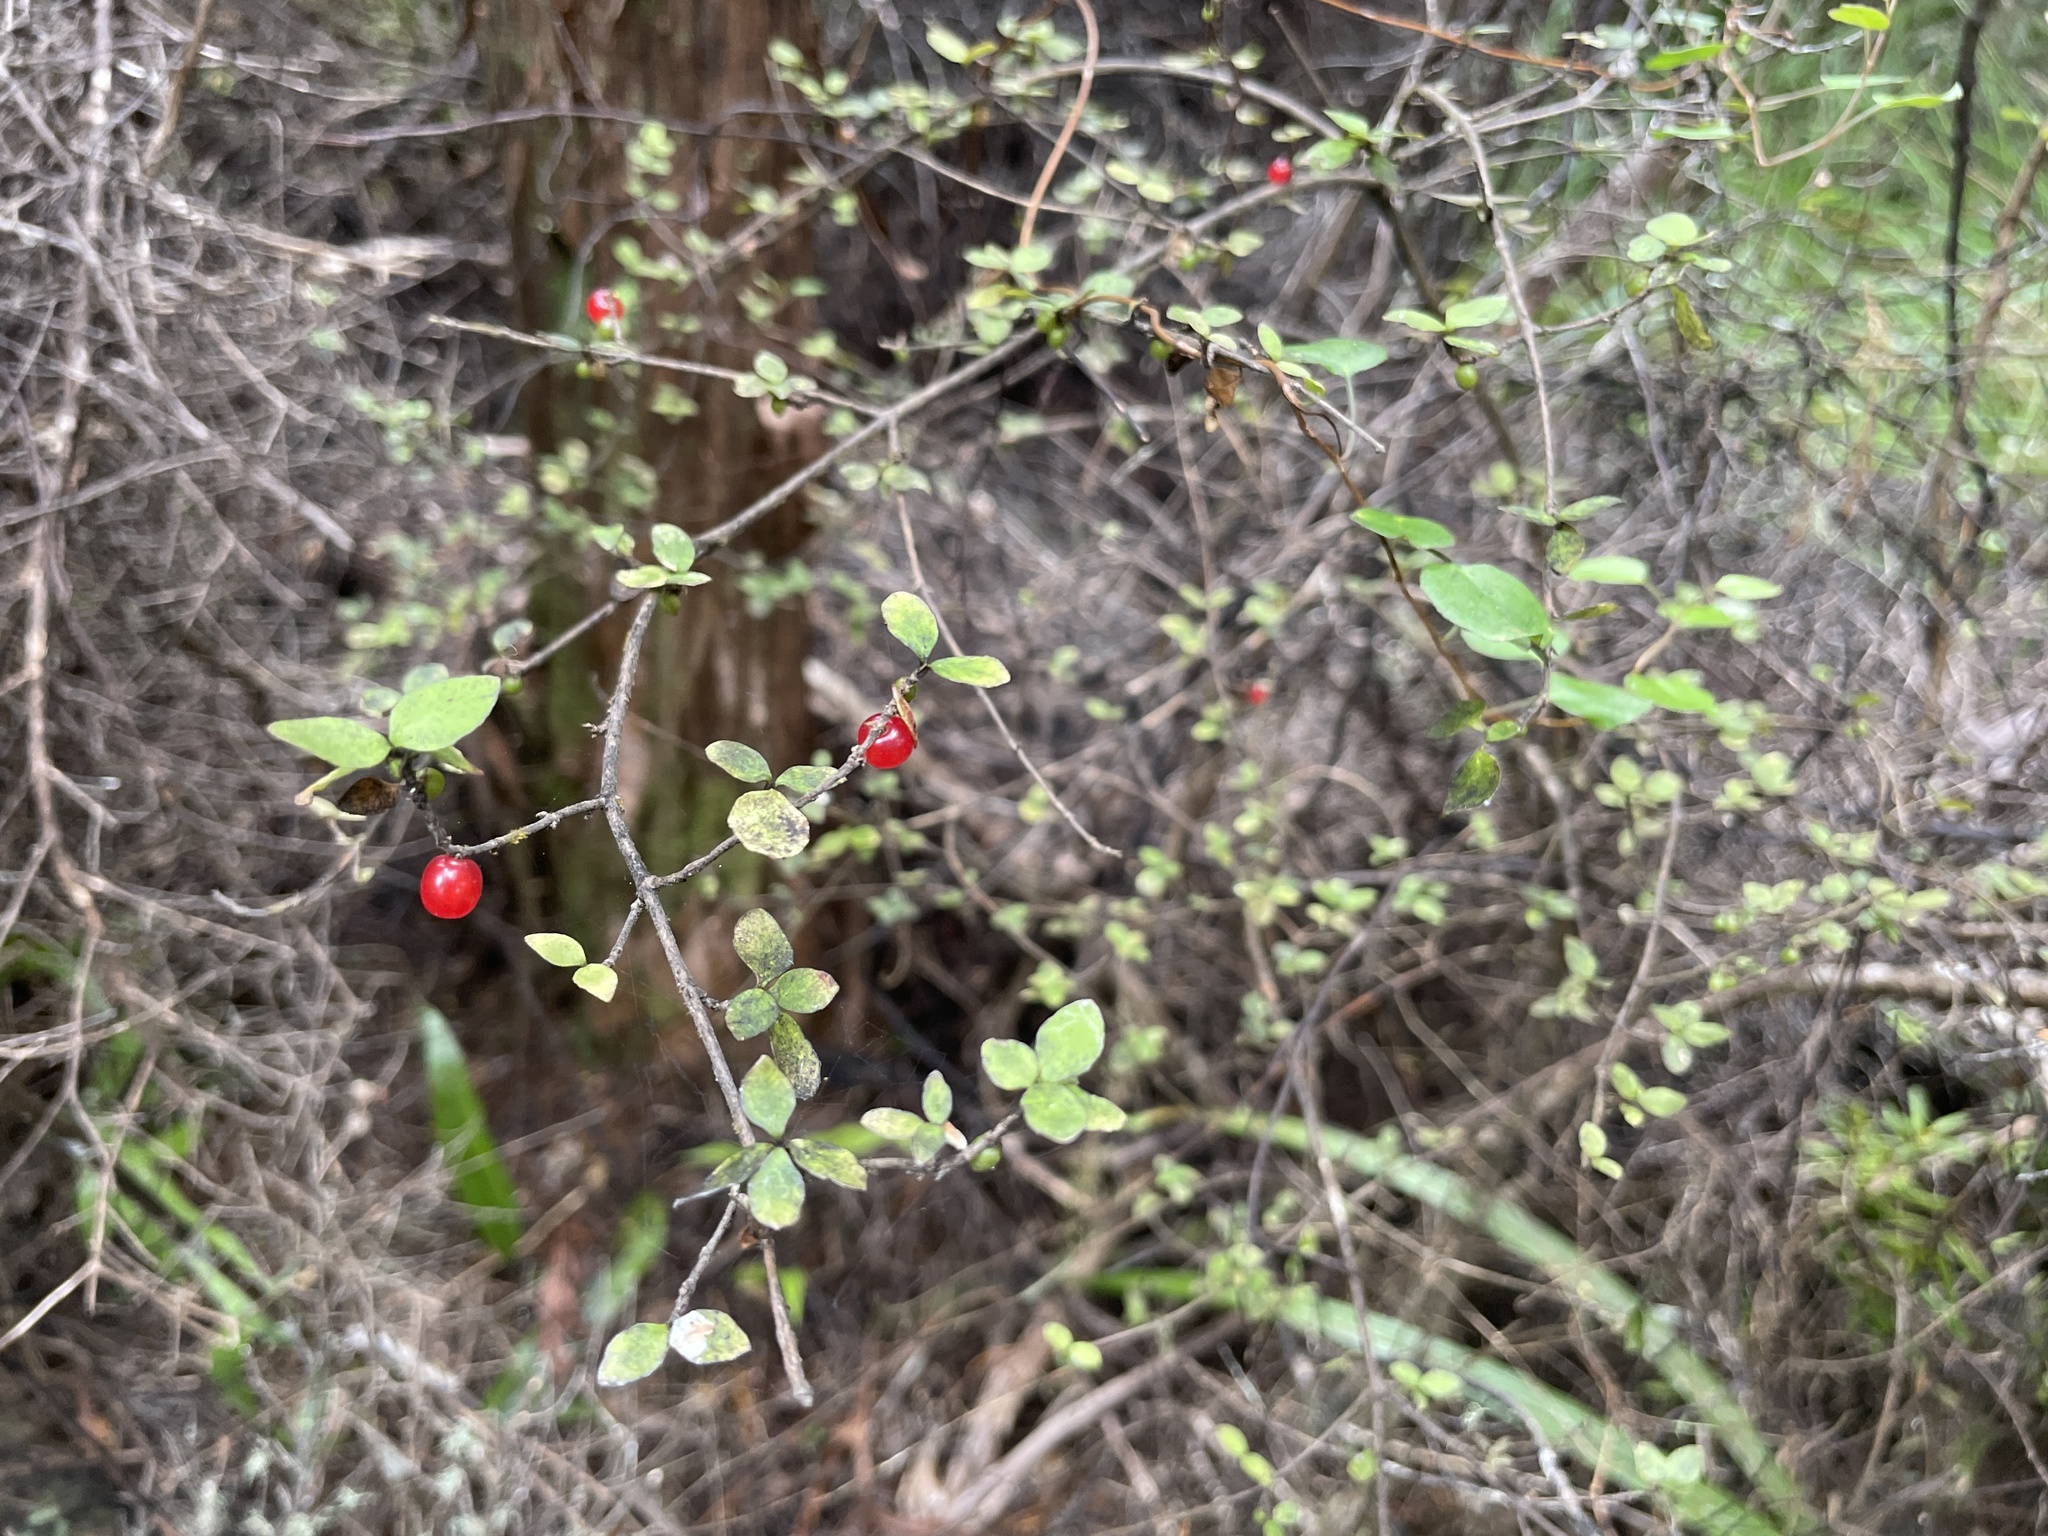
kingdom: Plantae
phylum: Tracheophyta
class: Magnoliopsida
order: Gentianales
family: Rubiaceae
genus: Coprosma
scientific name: Coprosma rhamnoides
